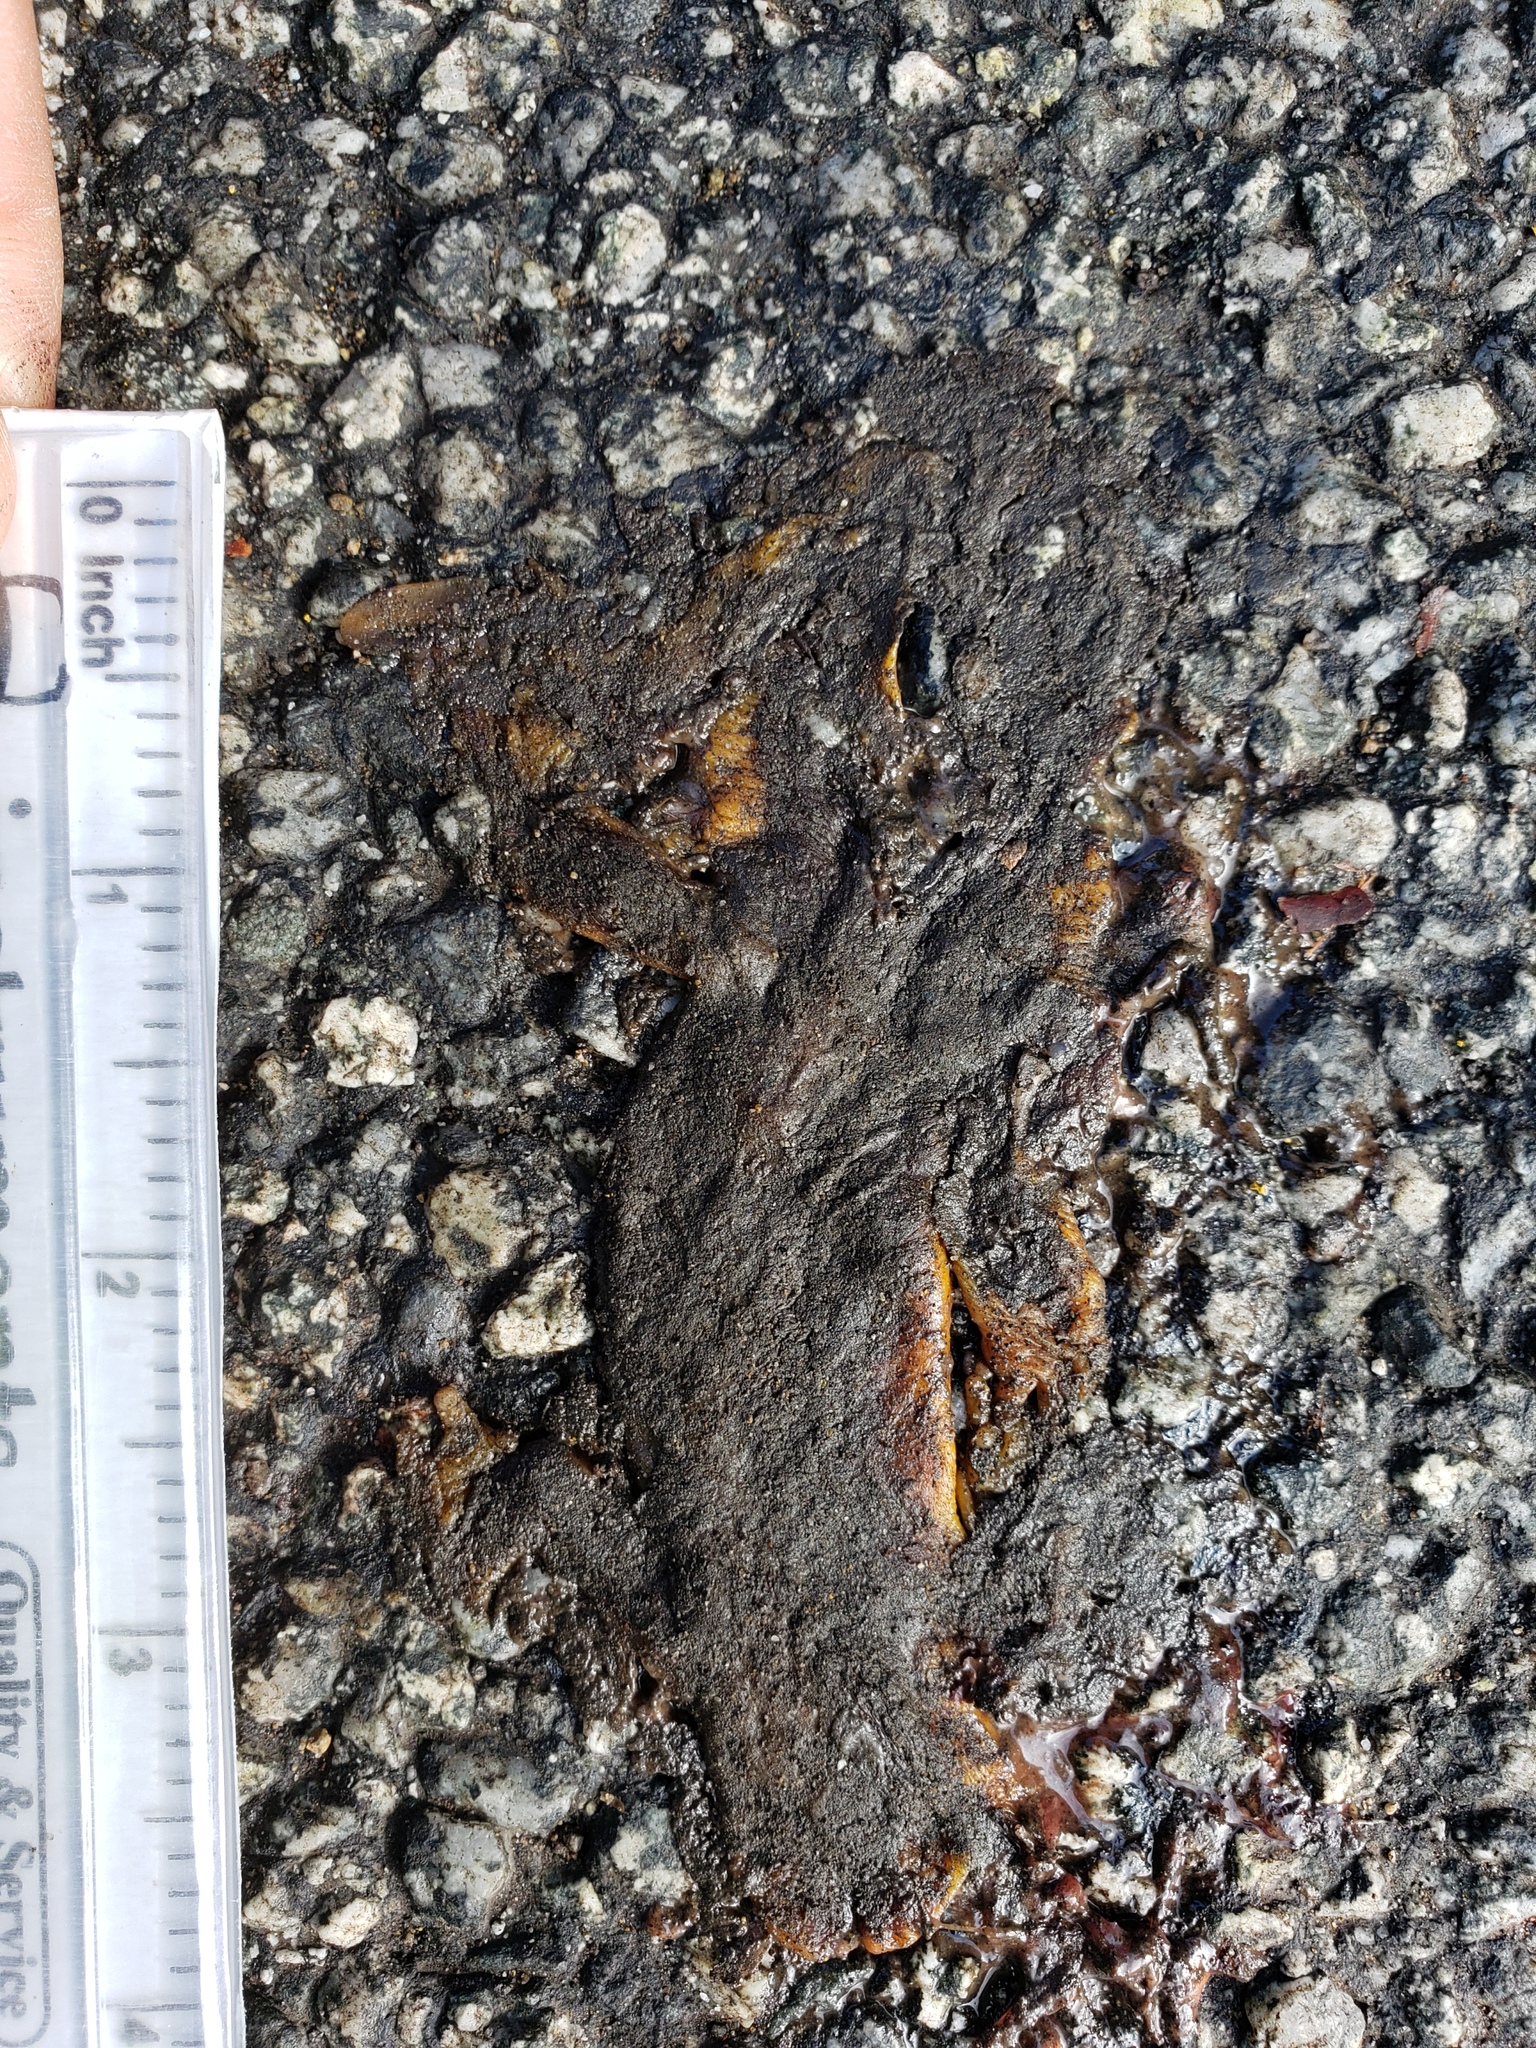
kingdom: Animalia
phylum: Chordata
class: Amphibia
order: Caudata
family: Salamandridae
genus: Taricha
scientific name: Taricha
